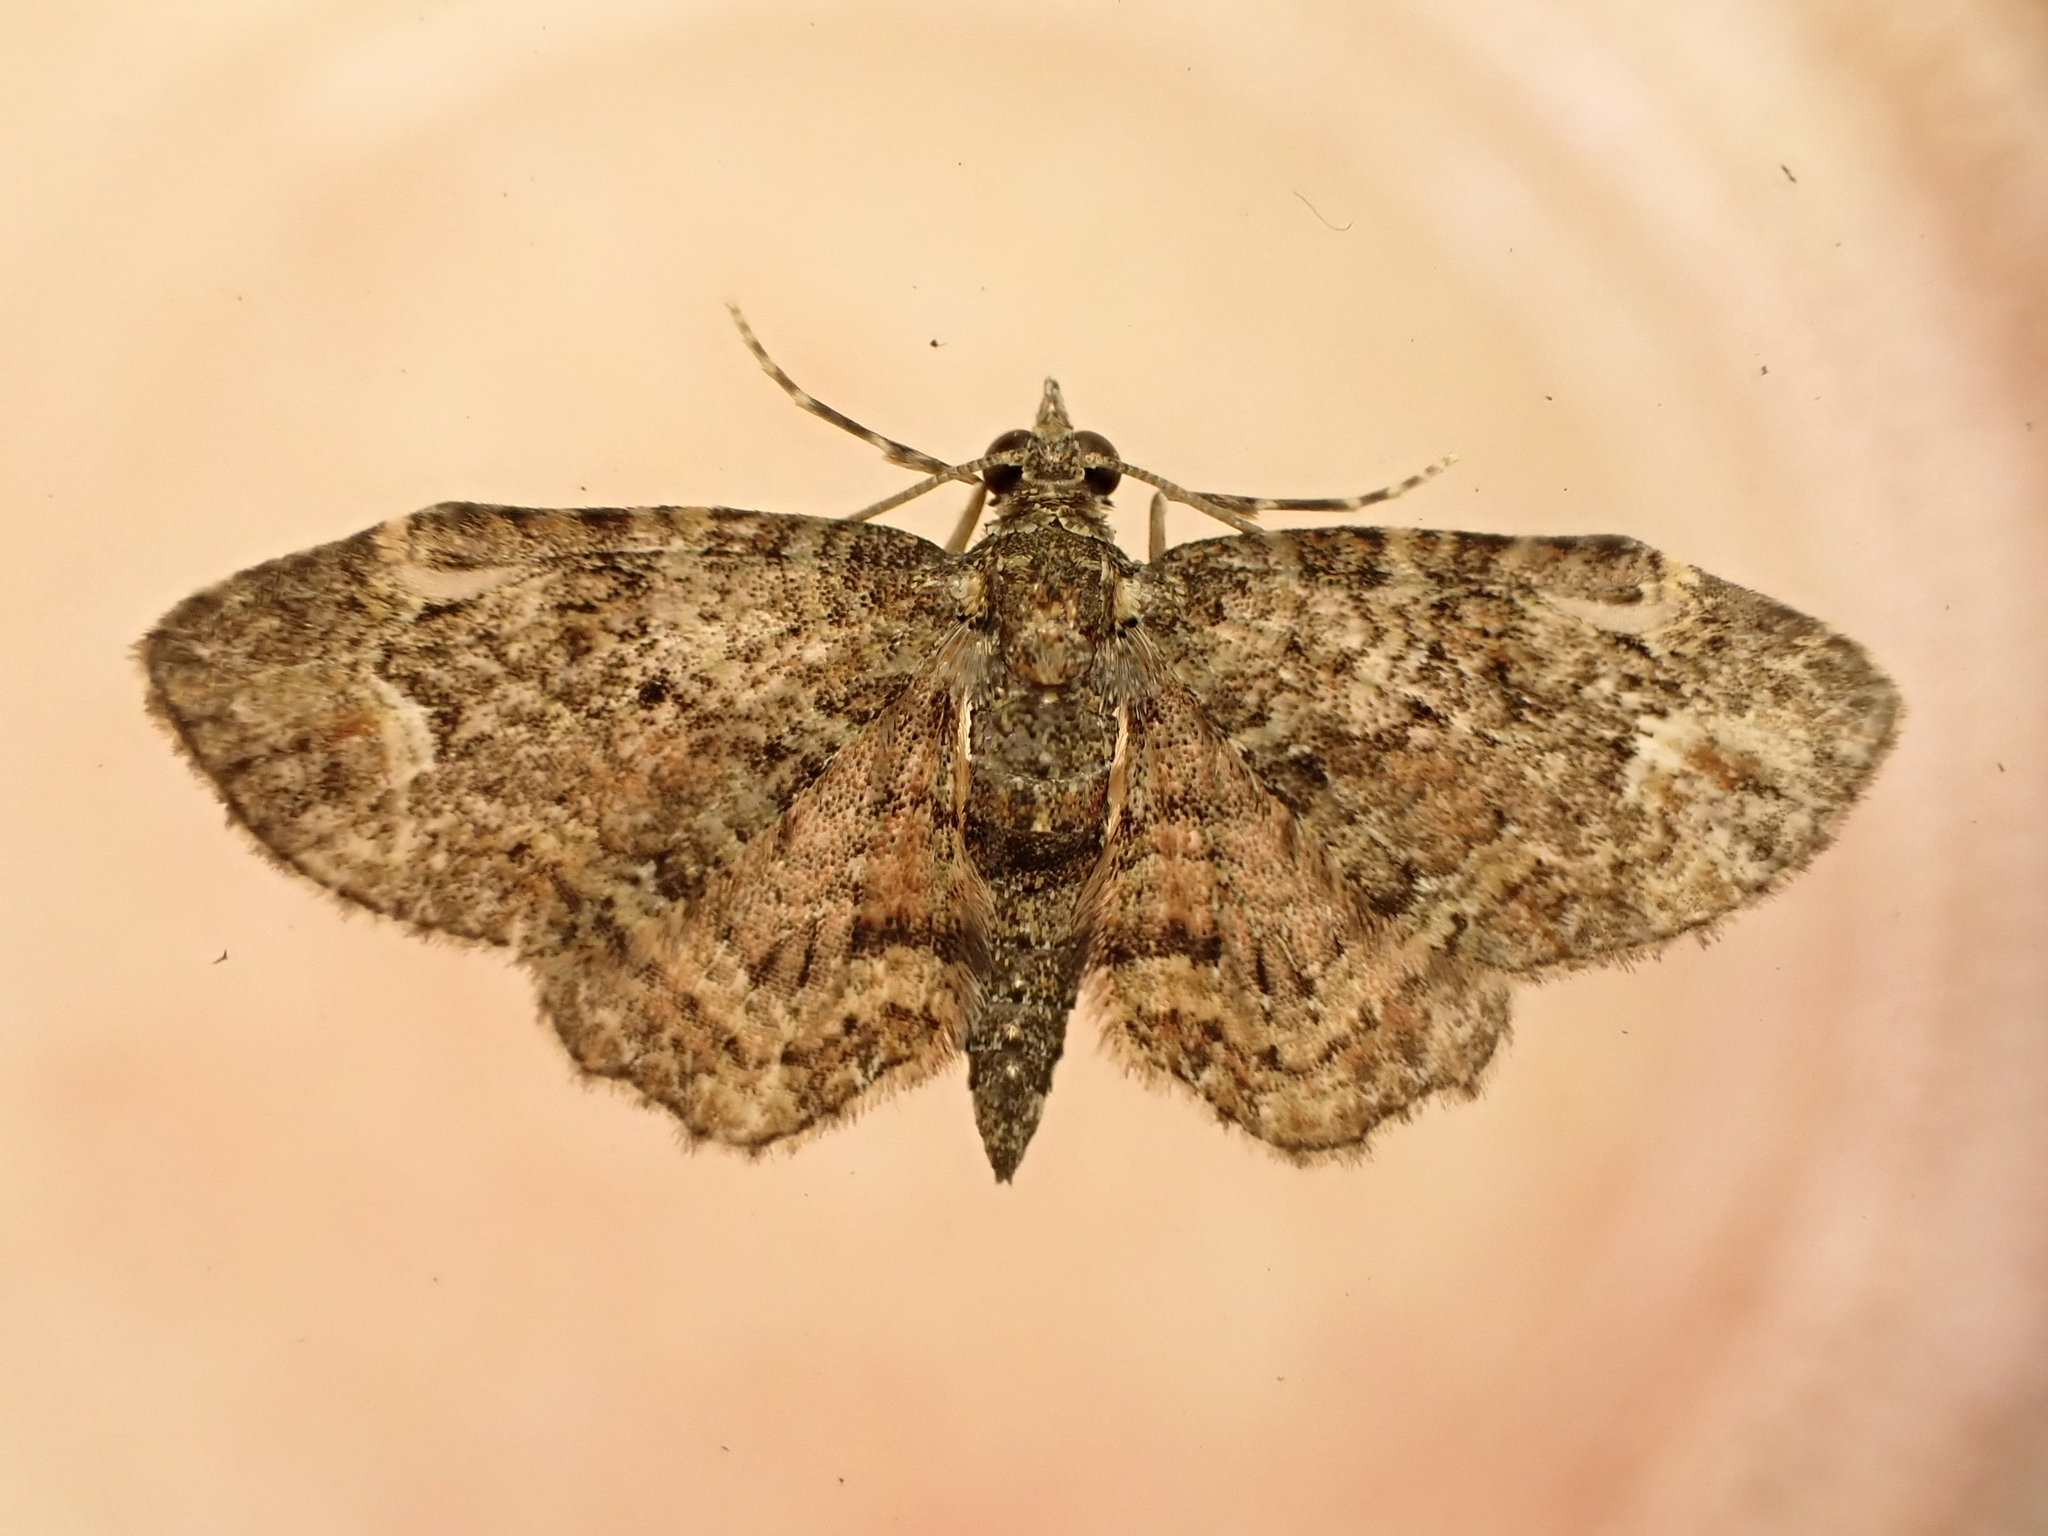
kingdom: Animalia
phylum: Arthropoda
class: Insecta
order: Lepidoptera
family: Geometridae
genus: Pasiphilodes
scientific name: Pasiphilodes testulata
